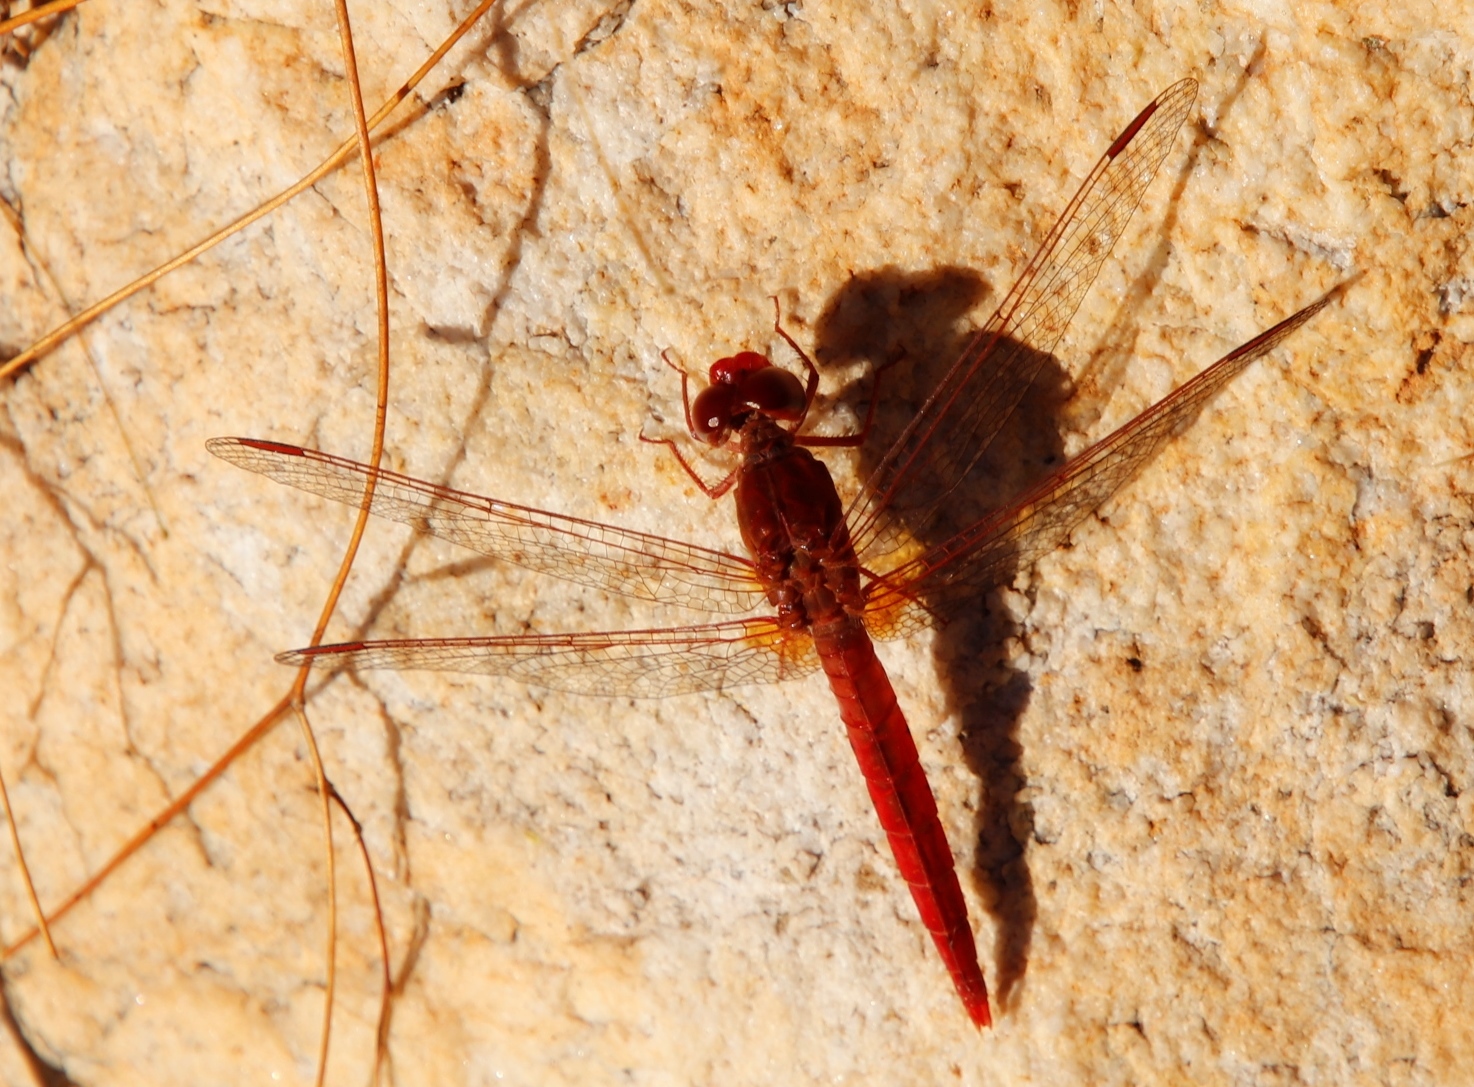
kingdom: Animalia
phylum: Arthropoda
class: Insecta
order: Odonata
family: Libellulidae
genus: Crocothemis
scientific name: Crocothemis erythraea
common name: Scarlet dragonfly
